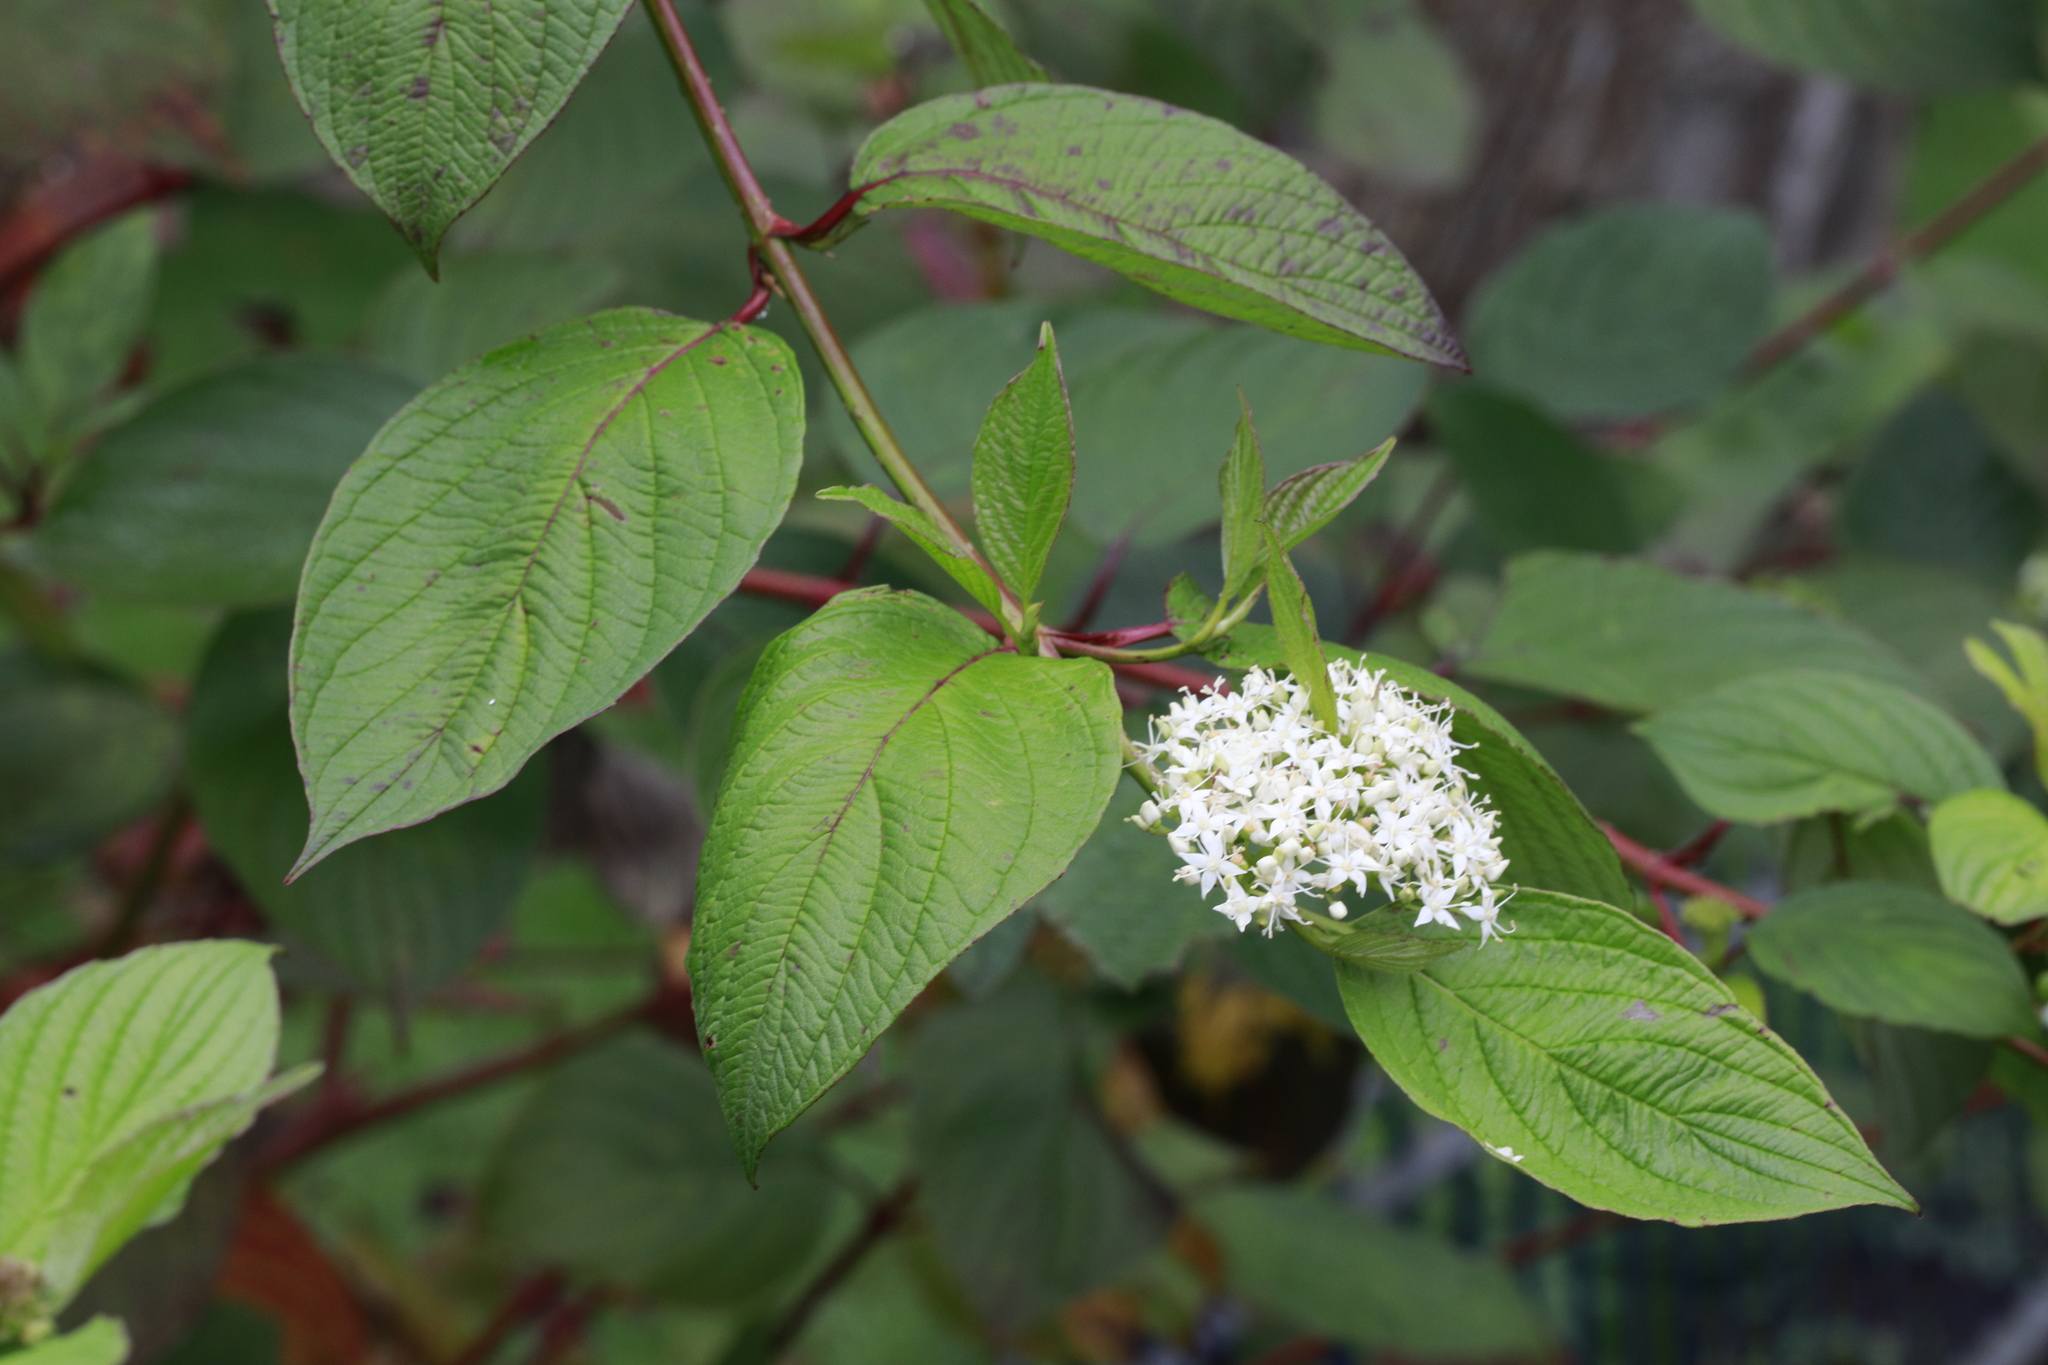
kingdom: Plantae
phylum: Tracheophyta
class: Magnoliopsida
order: Cornales
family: Cornaceae
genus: Cornus
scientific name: Cornus sericea
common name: Red-osier dogwood
